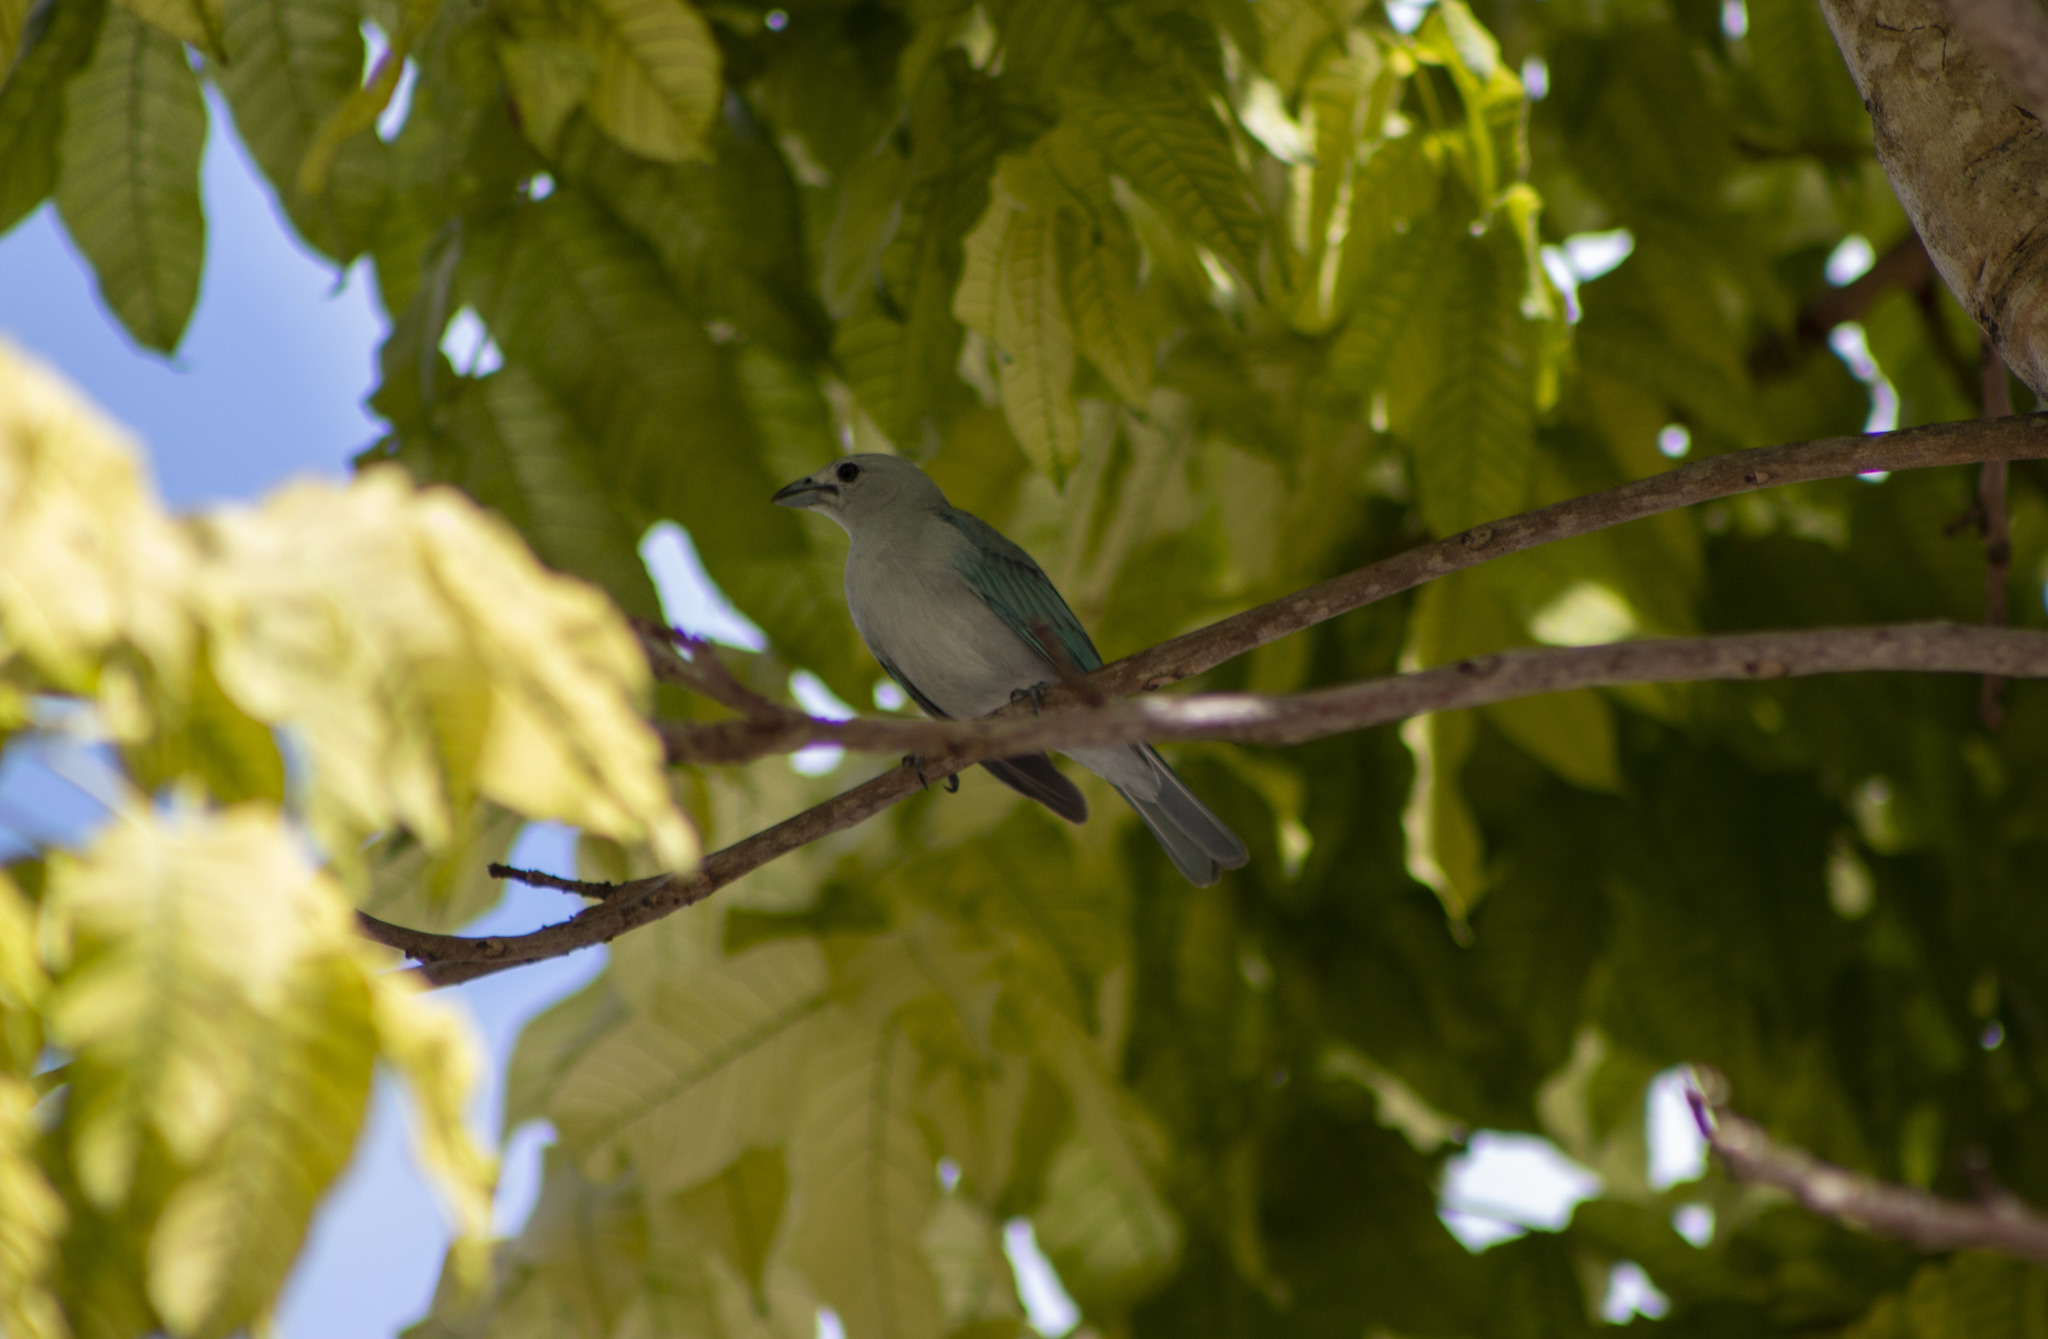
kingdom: Animalia
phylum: Chordata
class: Aves
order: Passeriformes
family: Thraupidae
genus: Thraupis
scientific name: Thraupis sayaca
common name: Sayaca tanager
